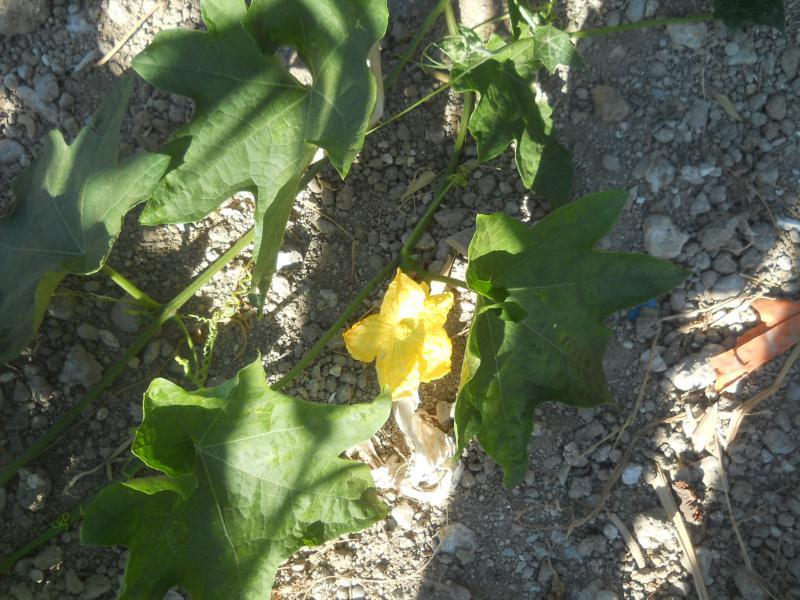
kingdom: Plantae
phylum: Tracheophyta
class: Magnoliopsida
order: Cucurbitales
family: Cucurbitaceae
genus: Luffa
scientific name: Luffa aegyptiaca
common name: Sponge gourd
